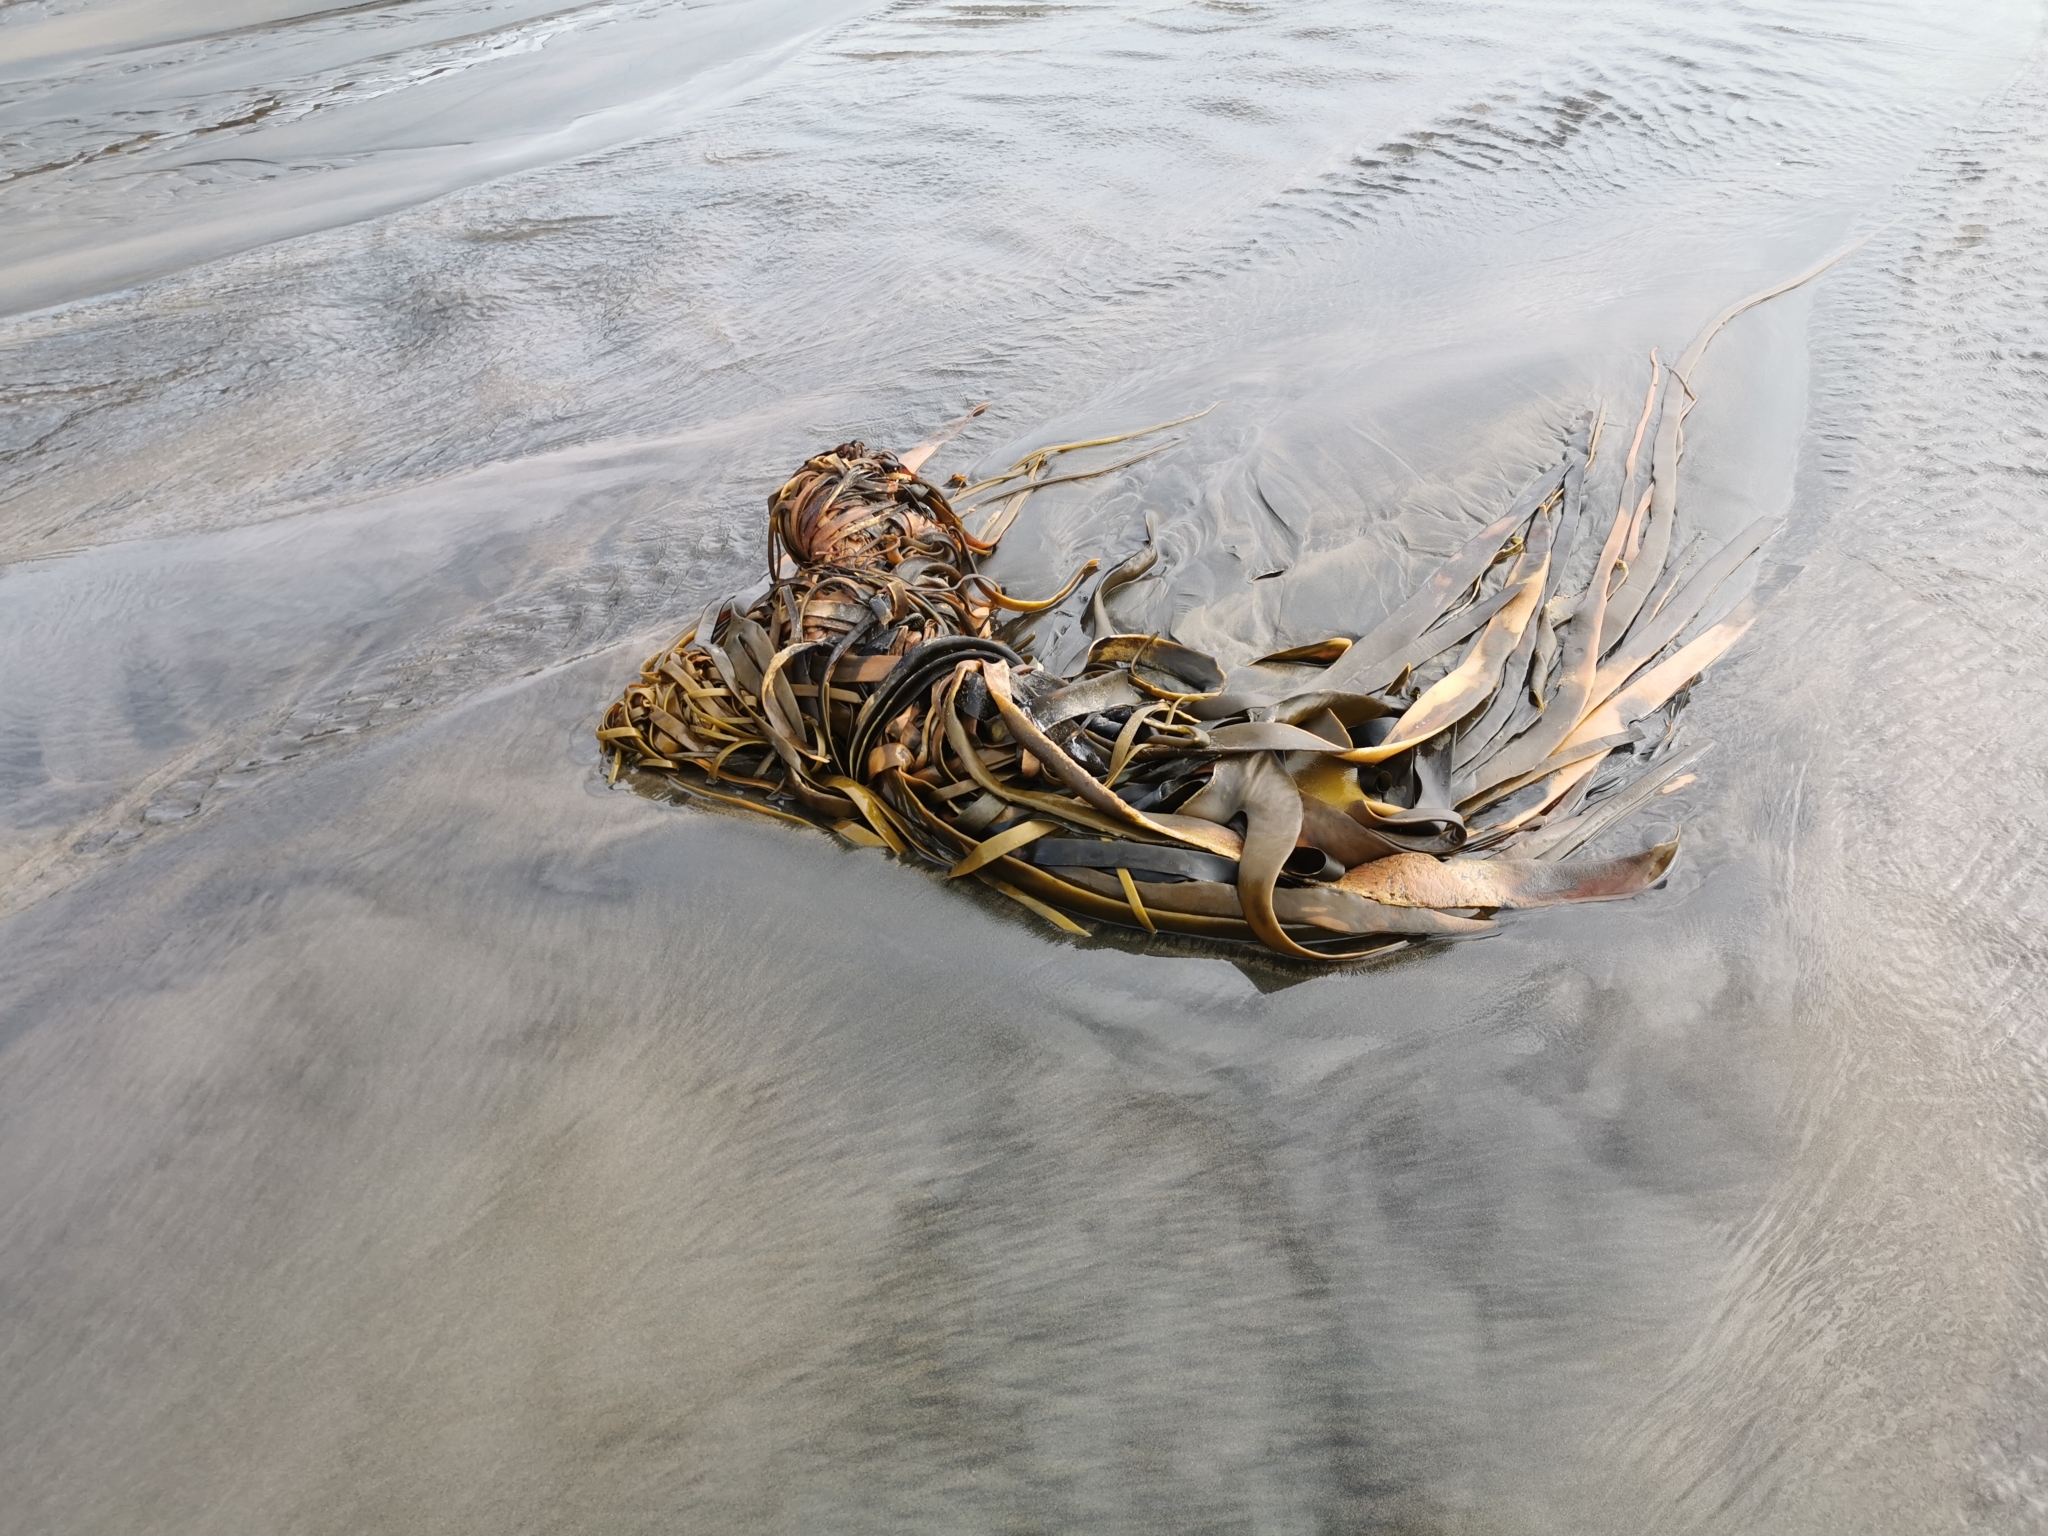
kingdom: Chromista
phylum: Ochrophyta
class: Phaeophyceae
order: Fucales
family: Durvillaeaceae
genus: Durvillaea
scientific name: Durvillaea antarctica
